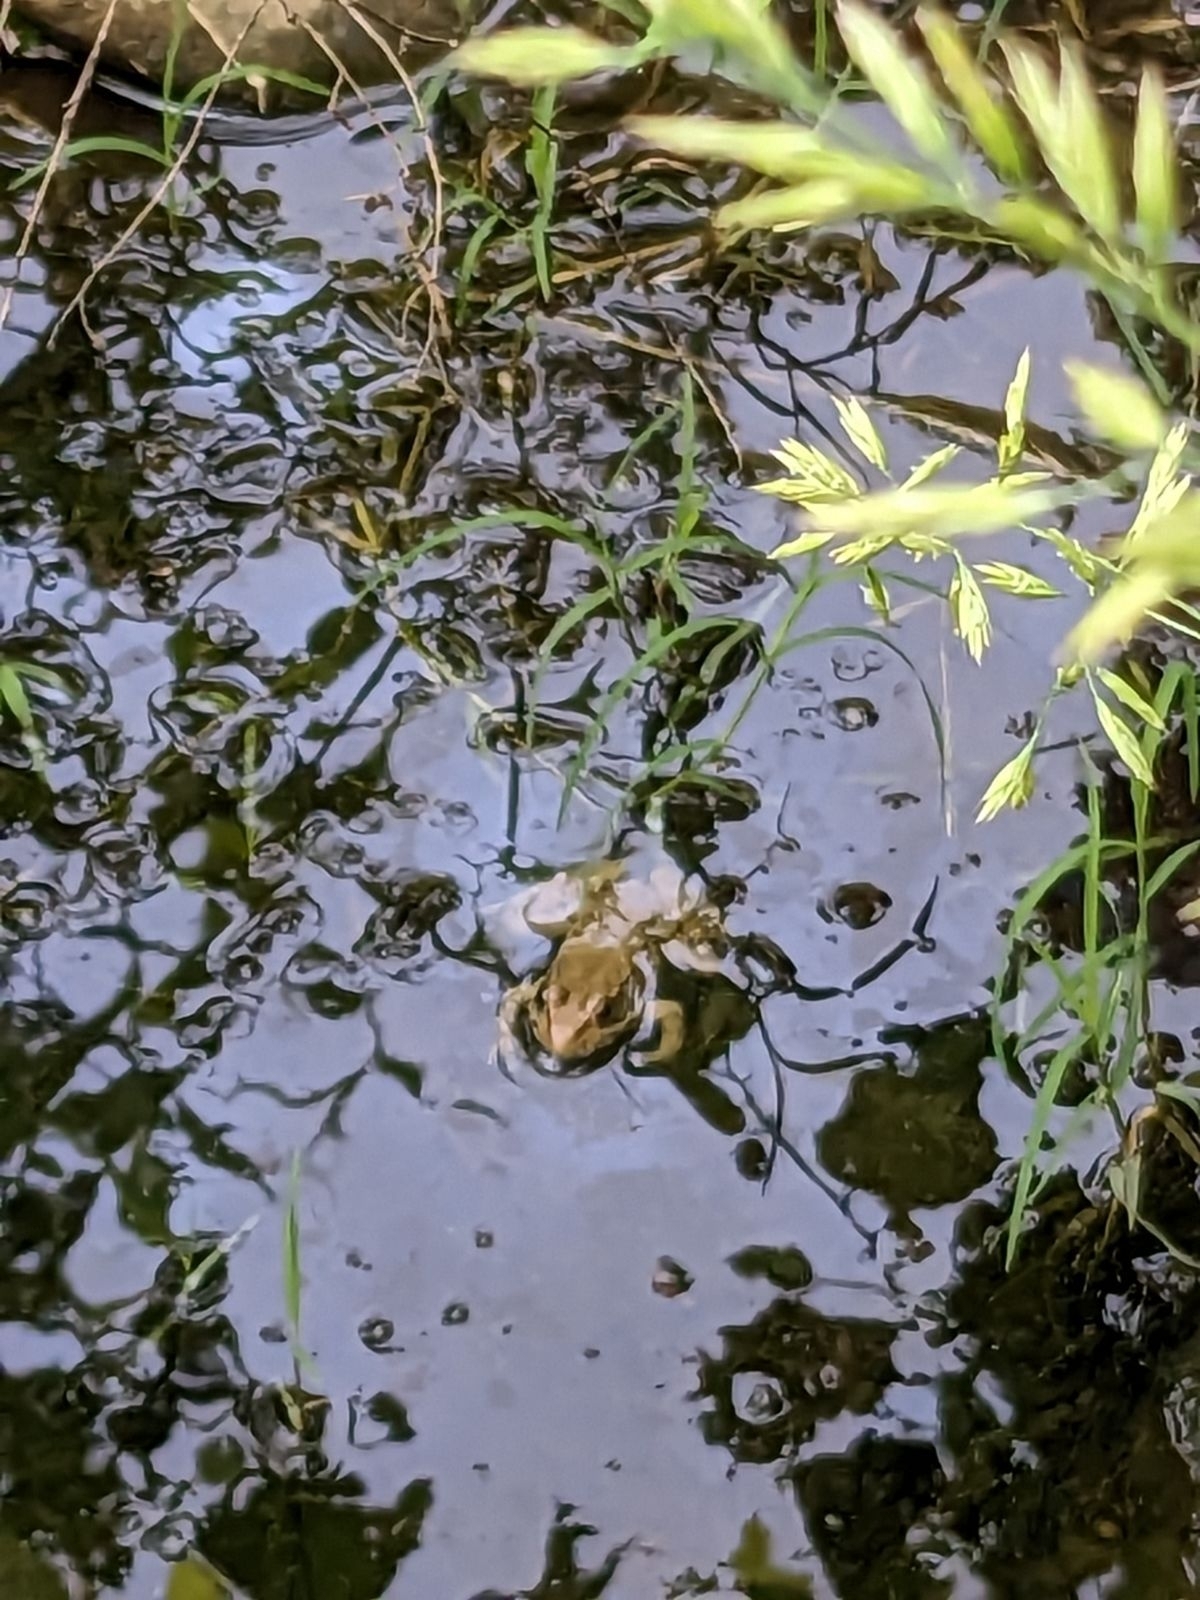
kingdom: Animalia
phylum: Chordata
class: Amphibia
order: Anura
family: Ranidae
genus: Lithobates
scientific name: Lithobates clamitans
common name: Green frog
